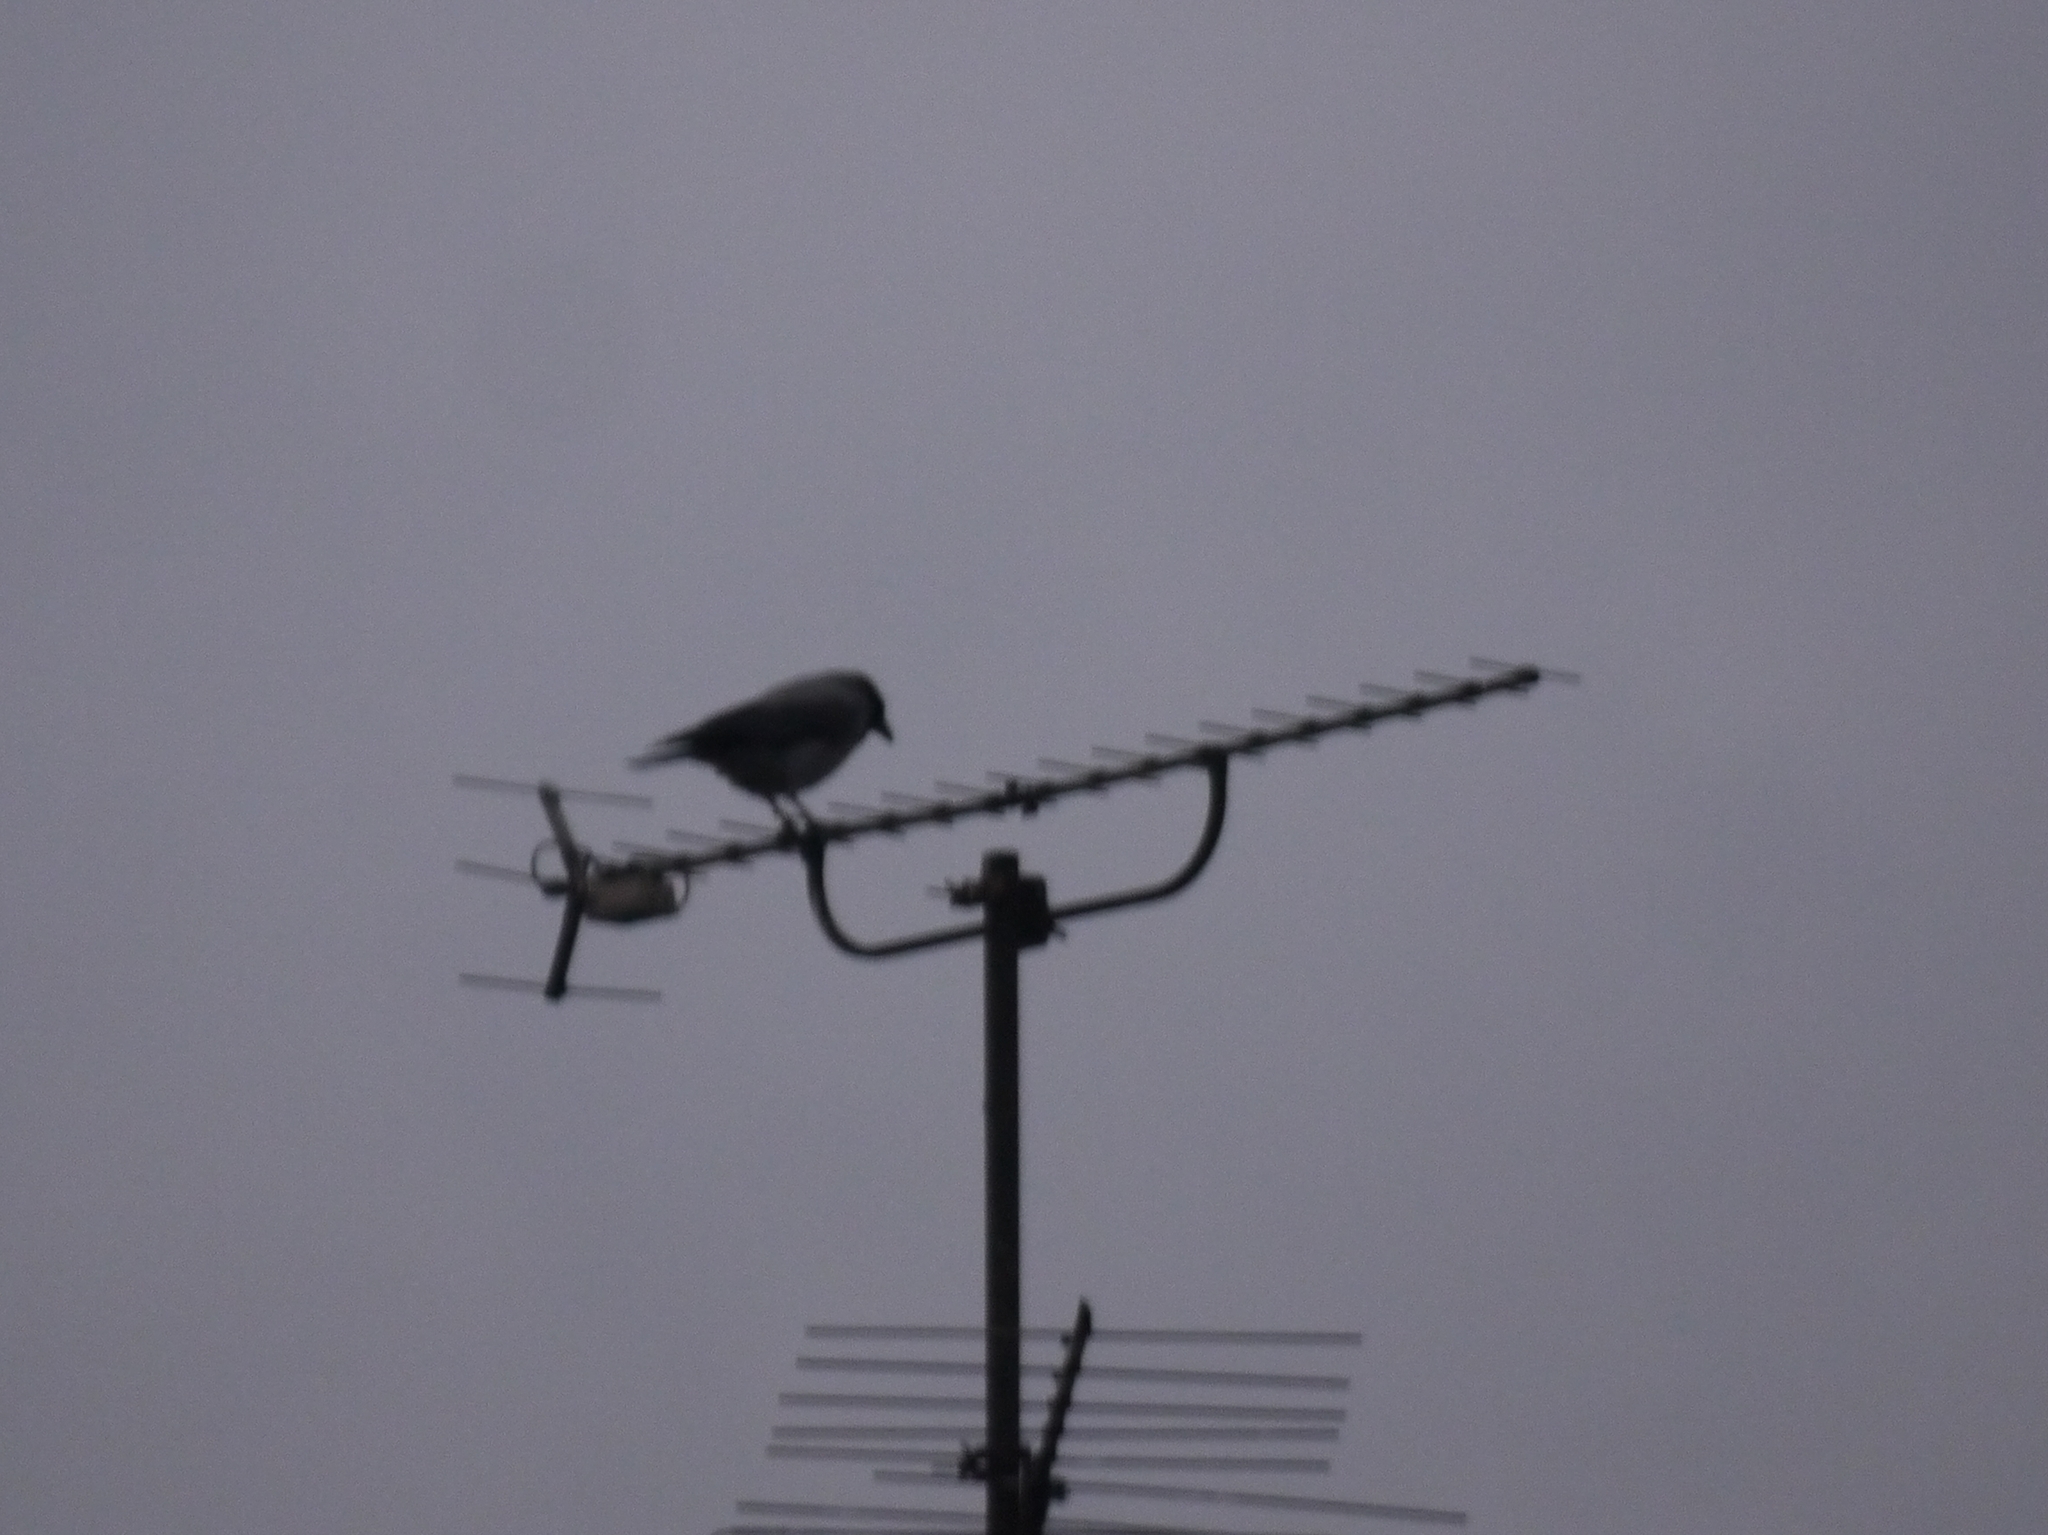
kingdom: Animalia
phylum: Chordata
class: Aves
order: Passeriformes
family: Corvidae
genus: Corvus
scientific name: Corvus cornix
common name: Hooded crow
